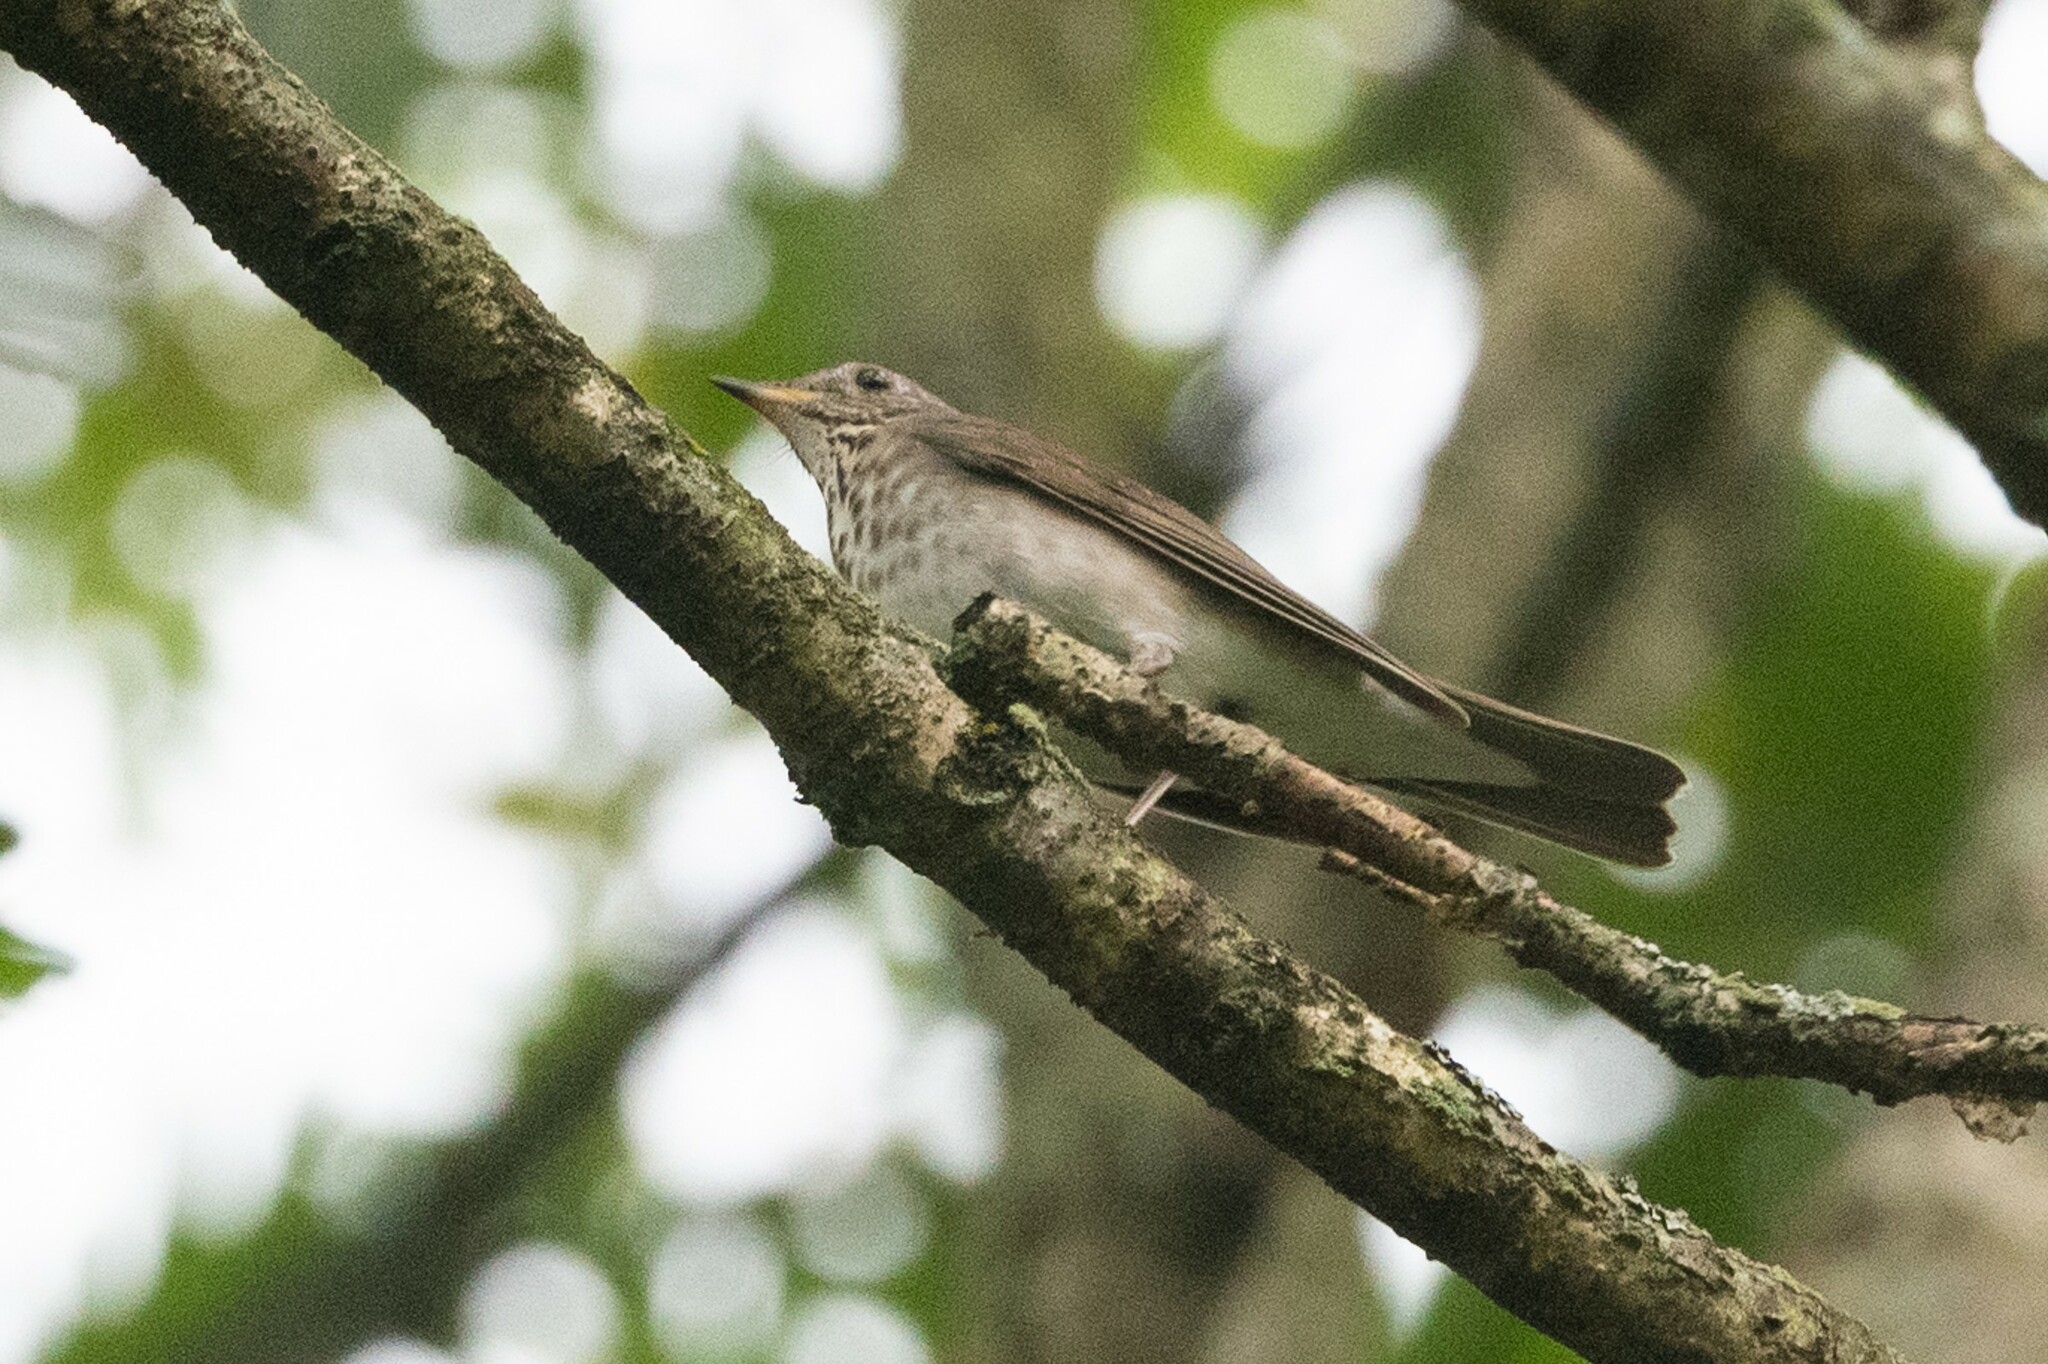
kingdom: Animalia
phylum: Chordata
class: Aves
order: Passeriformes
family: Turdidae
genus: Catharus
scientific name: Catharus minimus
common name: Grey-cheeked thrush
